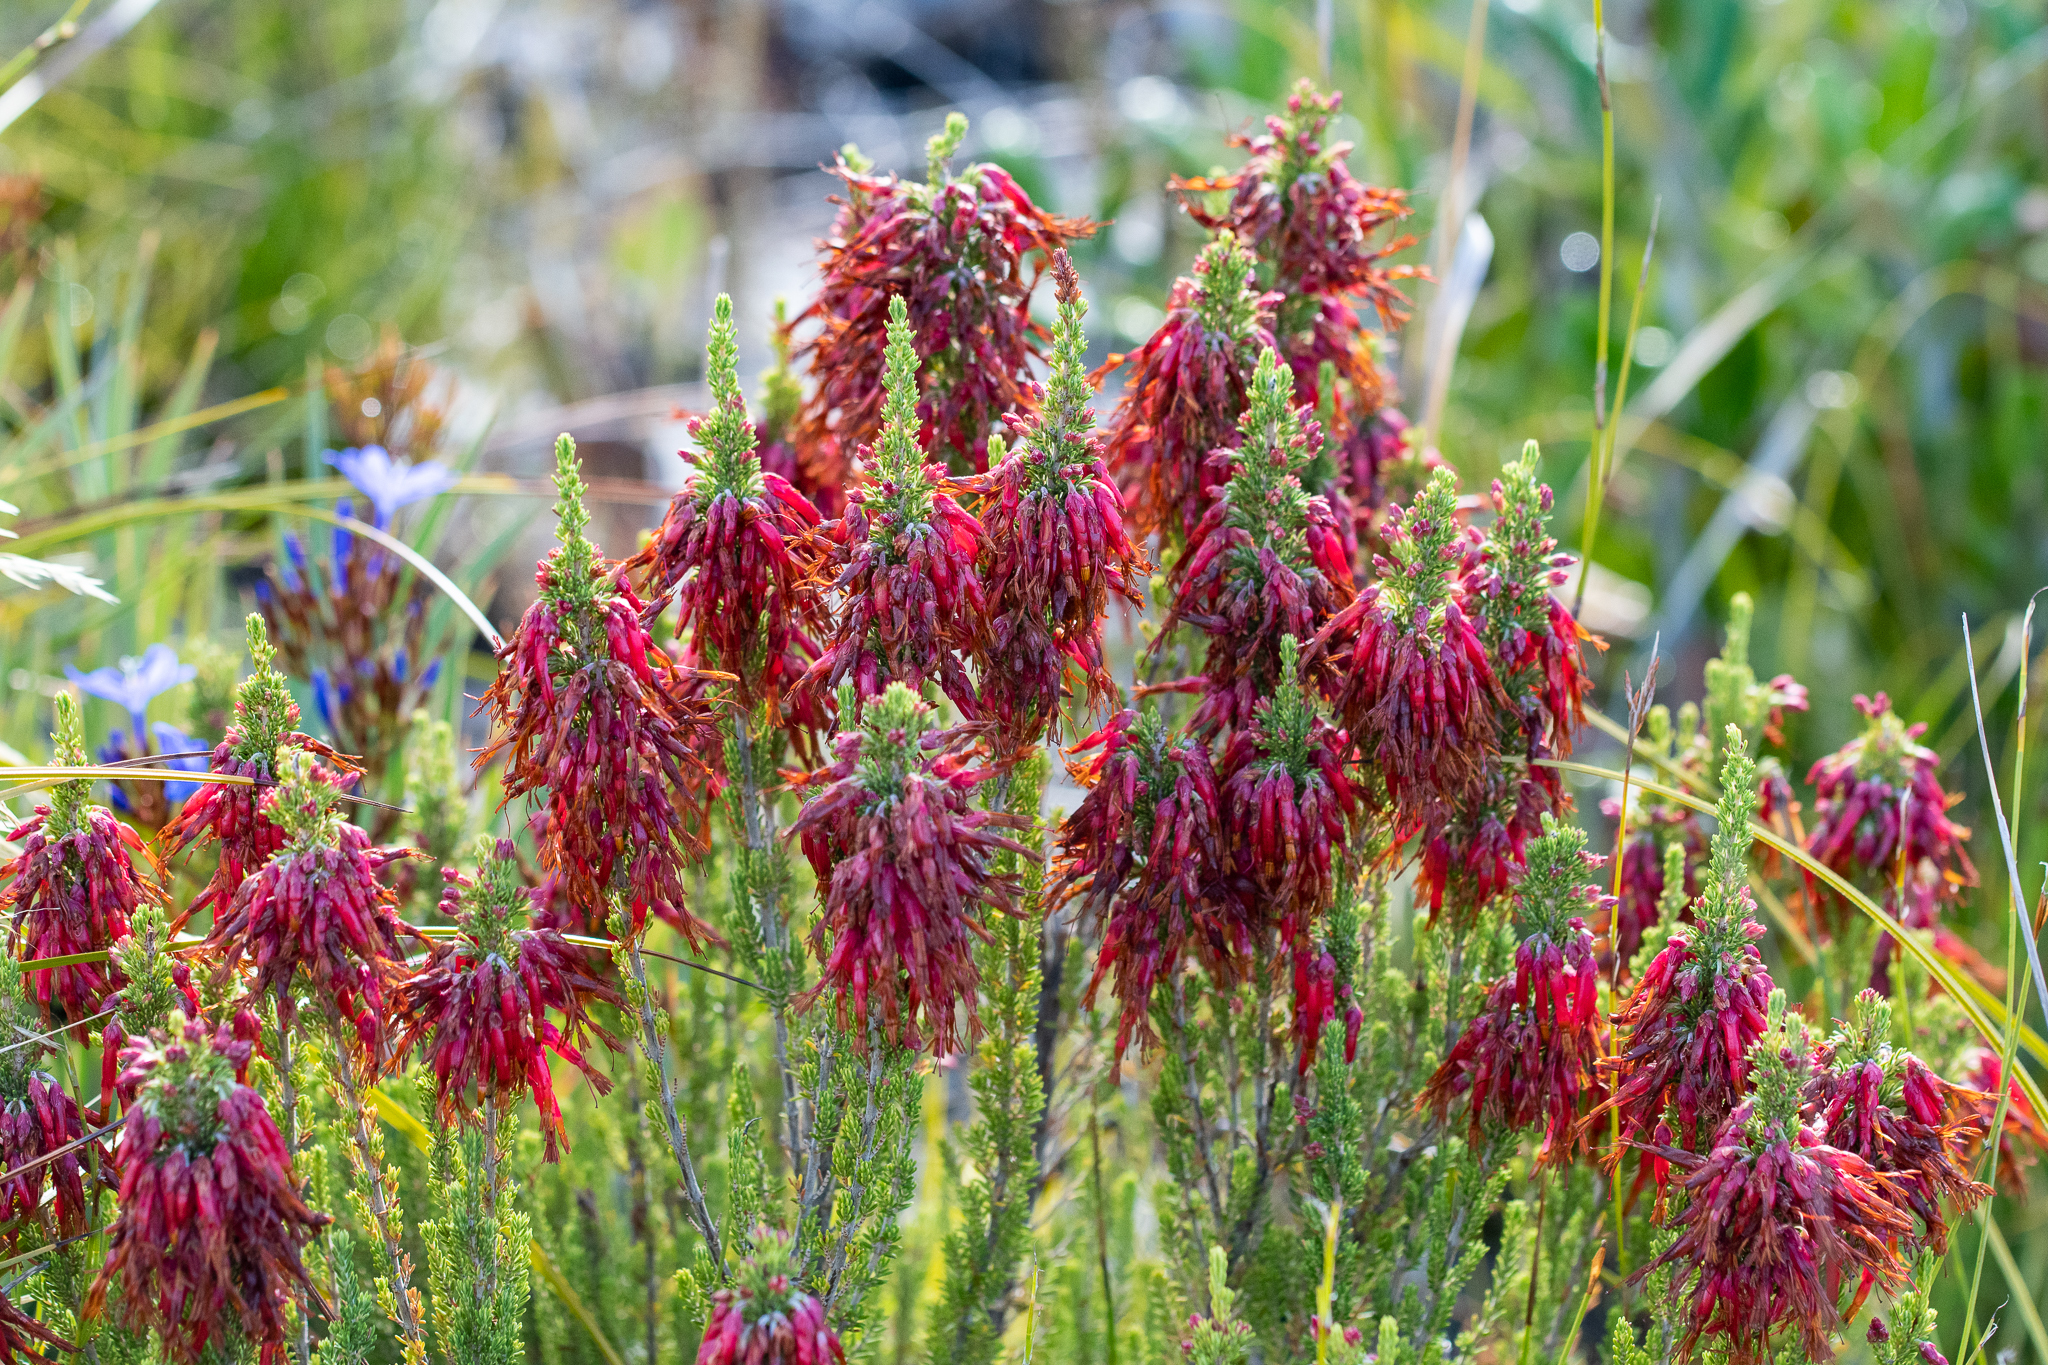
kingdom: Plantae
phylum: Tracheophyta
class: Magnoliopsida
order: Ericales
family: Ericaceae
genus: Erica
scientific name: Erica monadelphia
